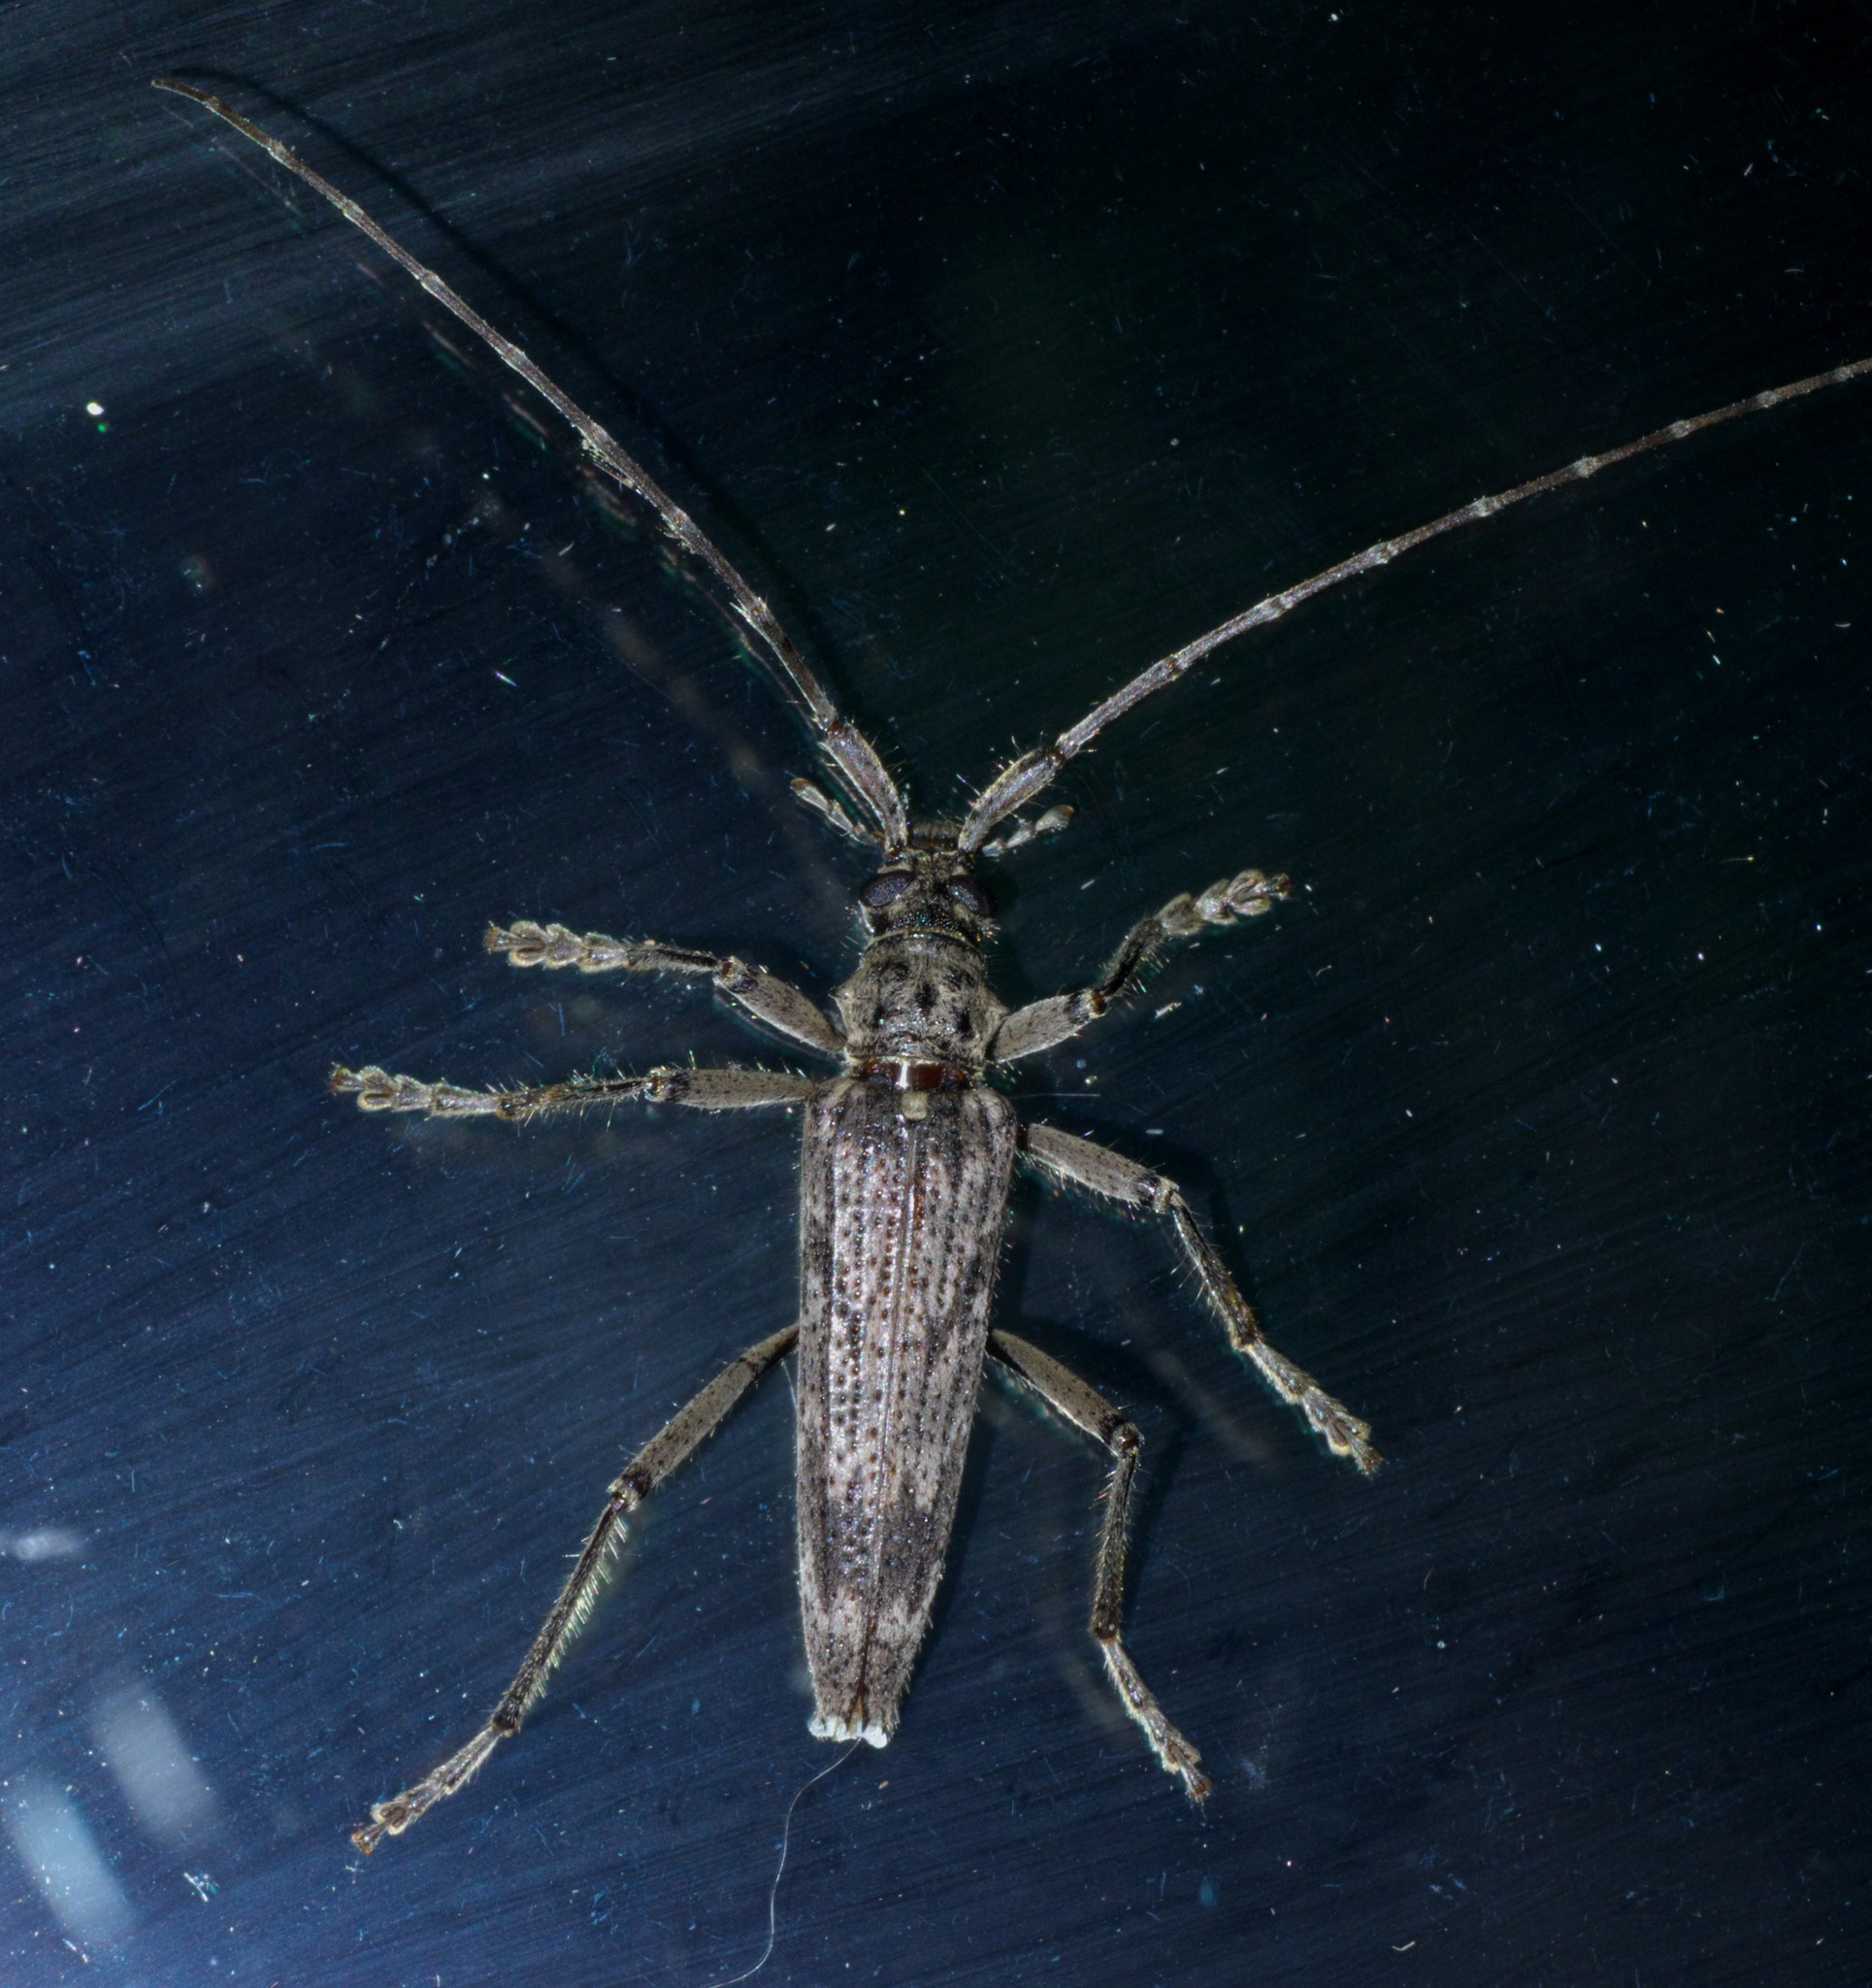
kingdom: Animalia
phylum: Arthropoda
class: Insecta
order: Coleoptera
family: Cerambycidae
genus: Elytrimitatrix
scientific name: Elytrimitatrix undata
